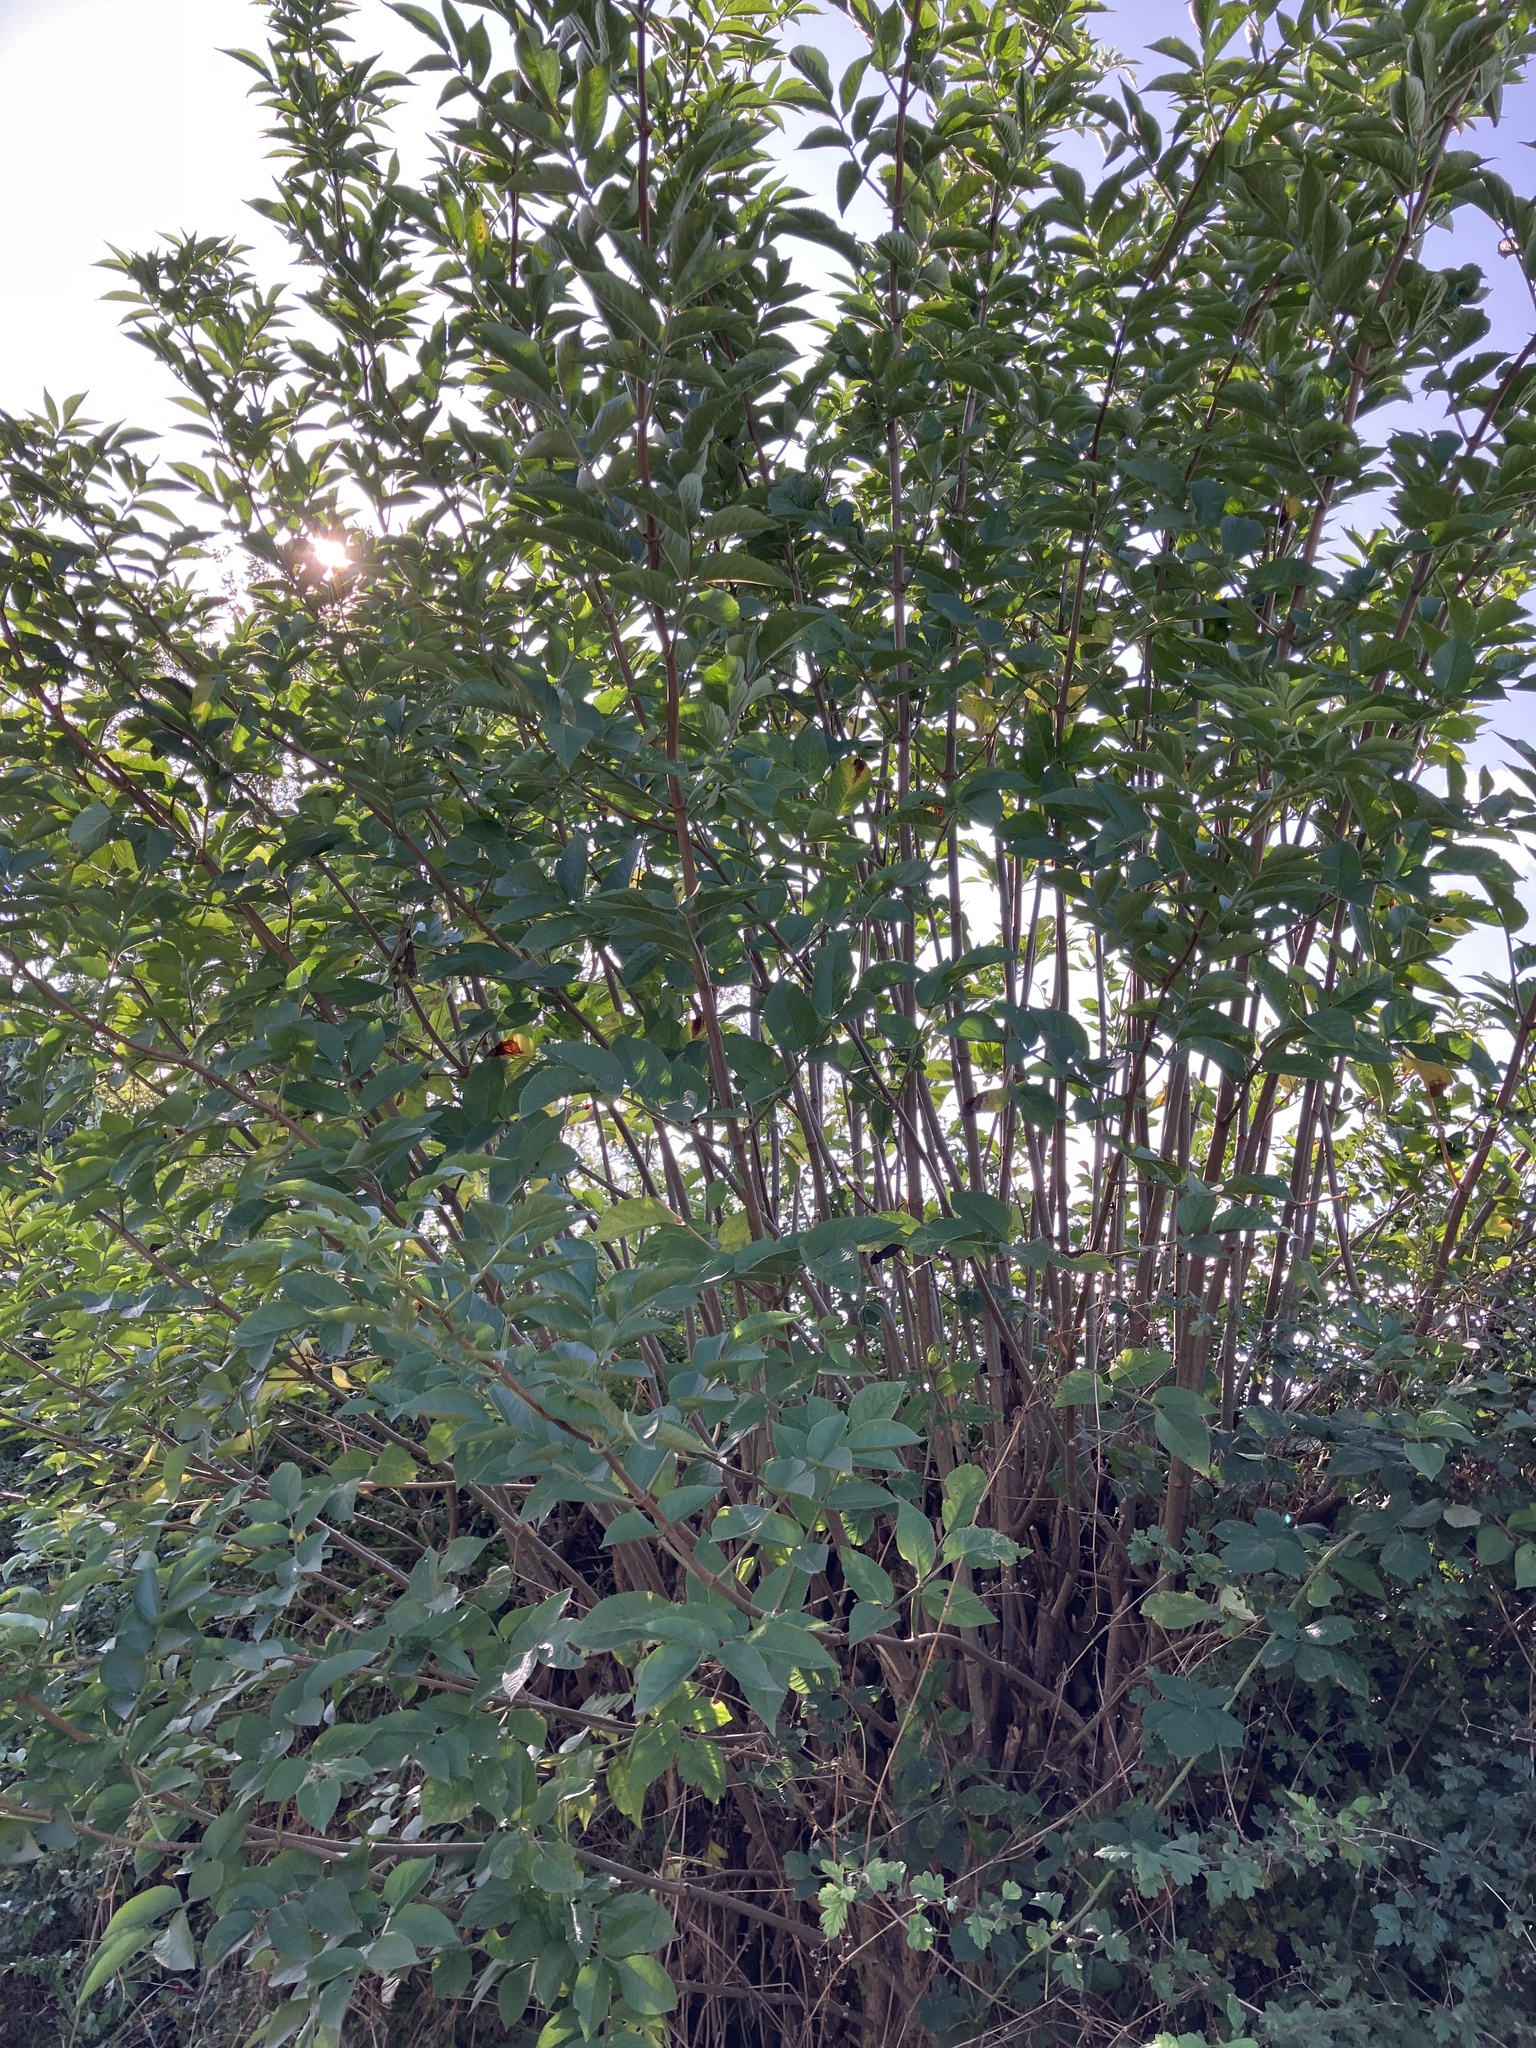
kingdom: Plantae
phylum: Tracheophyta
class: Magnoliopsida
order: Dipsacales
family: Viburnaceae
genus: Sambucus
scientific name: Sambucus nigra
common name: Elder
